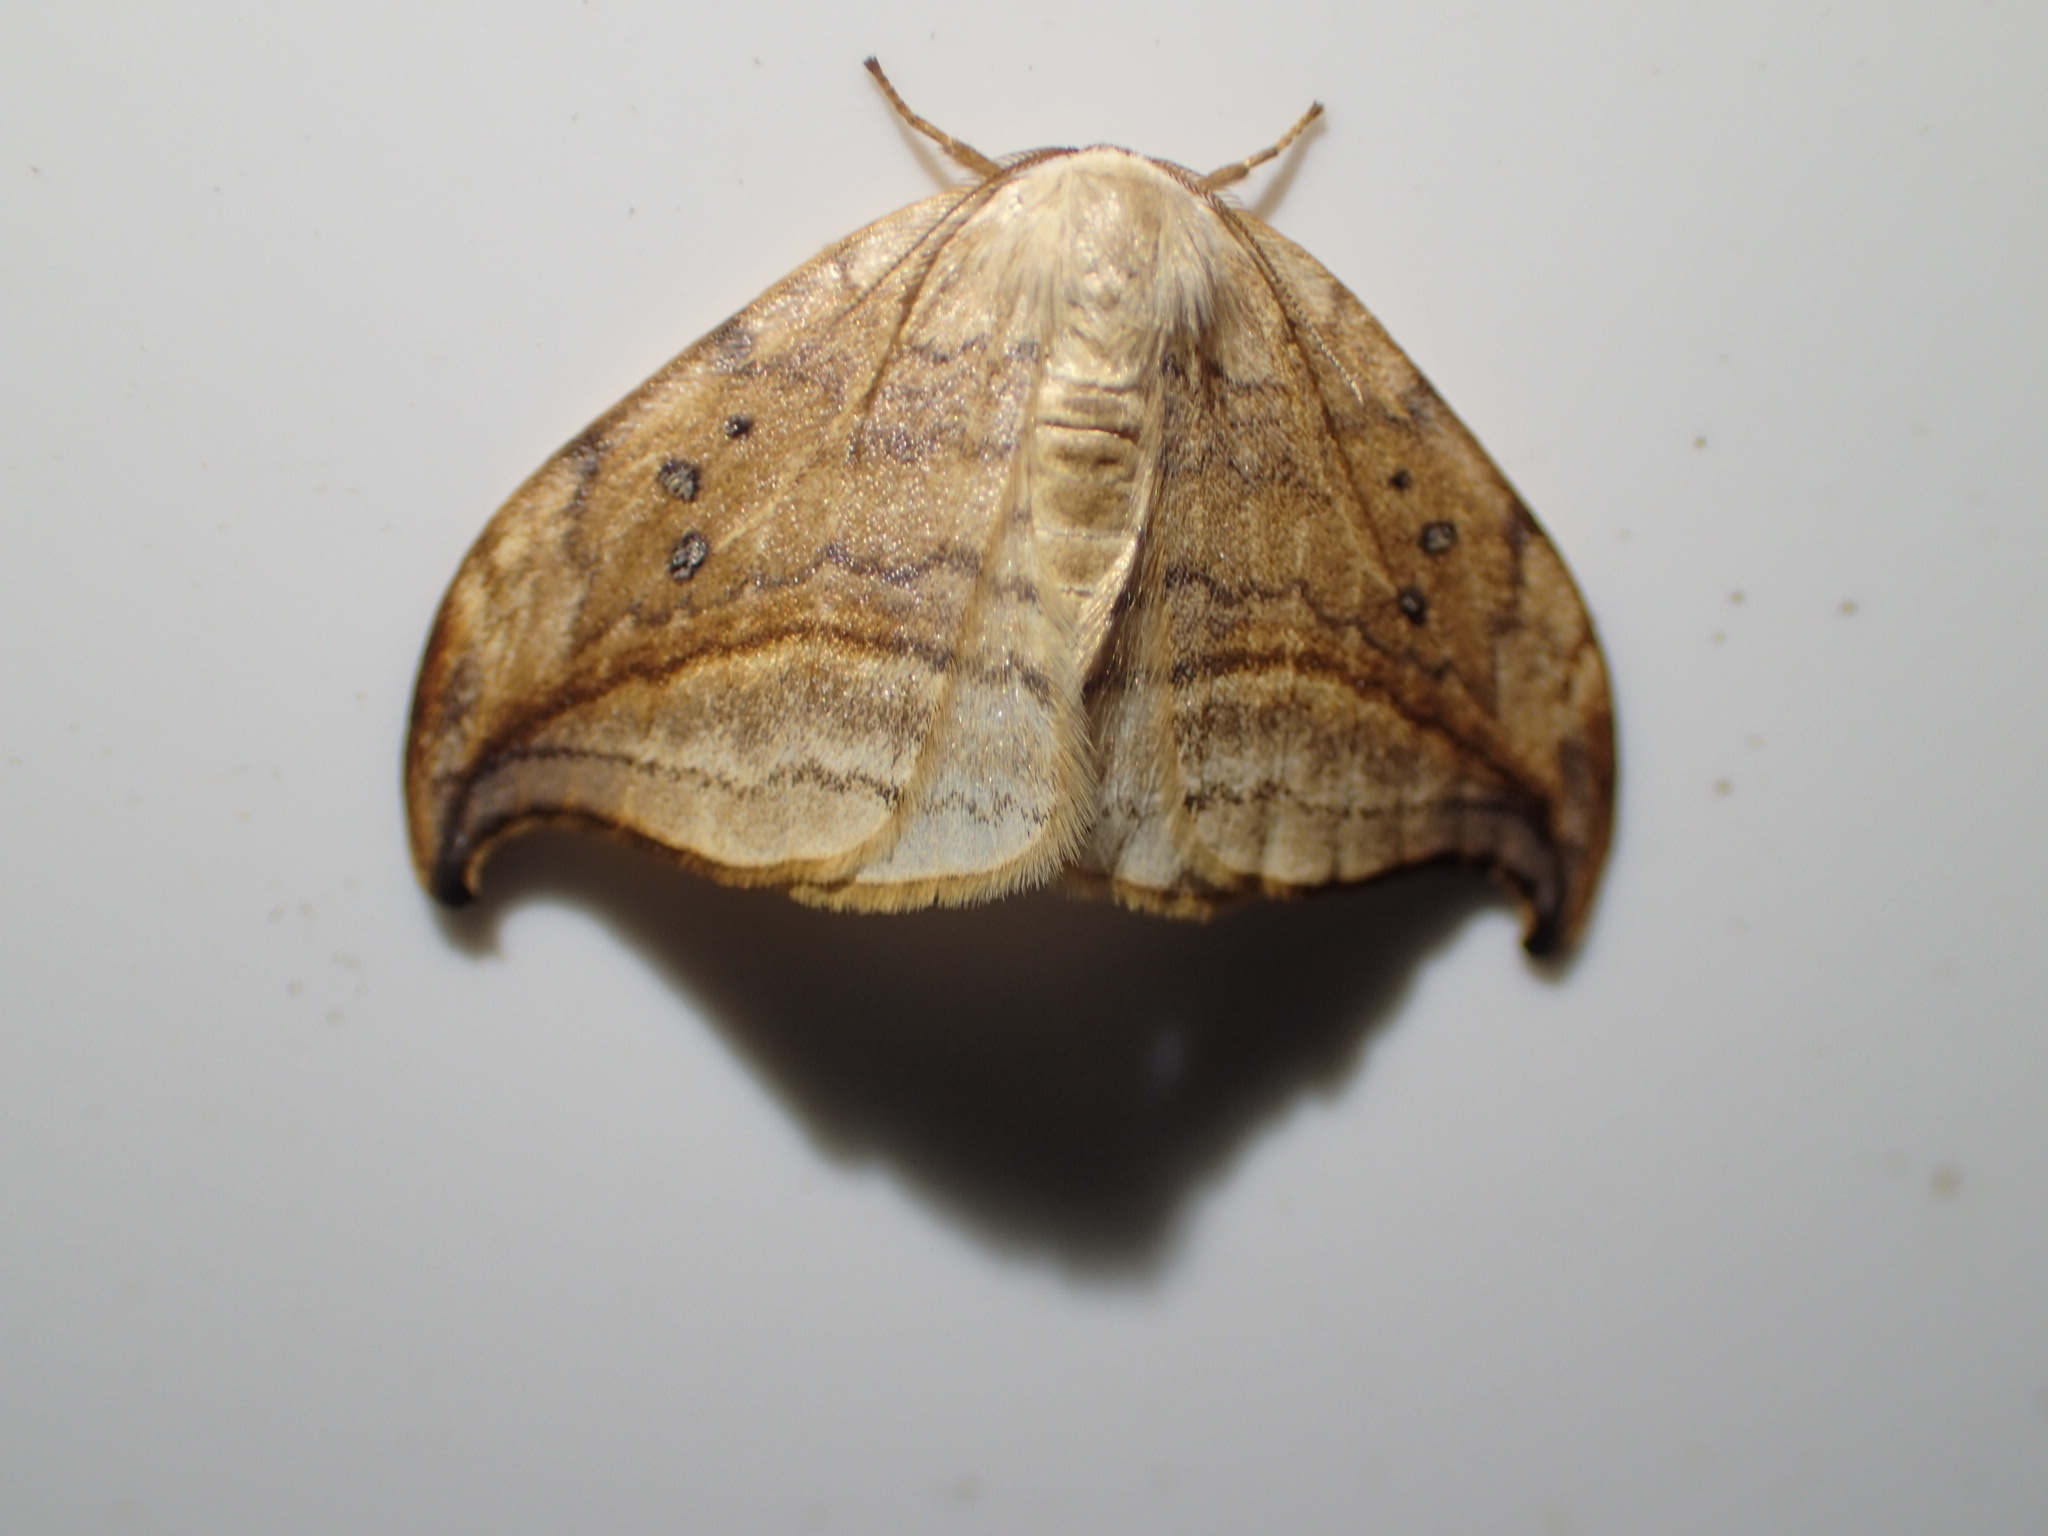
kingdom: Animalia
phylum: Arthropoda
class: Insecta
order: Lepidoptera
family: Drepanidae
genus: Drepana
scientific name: Drepana arcuata
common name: Arched hooktip moth
